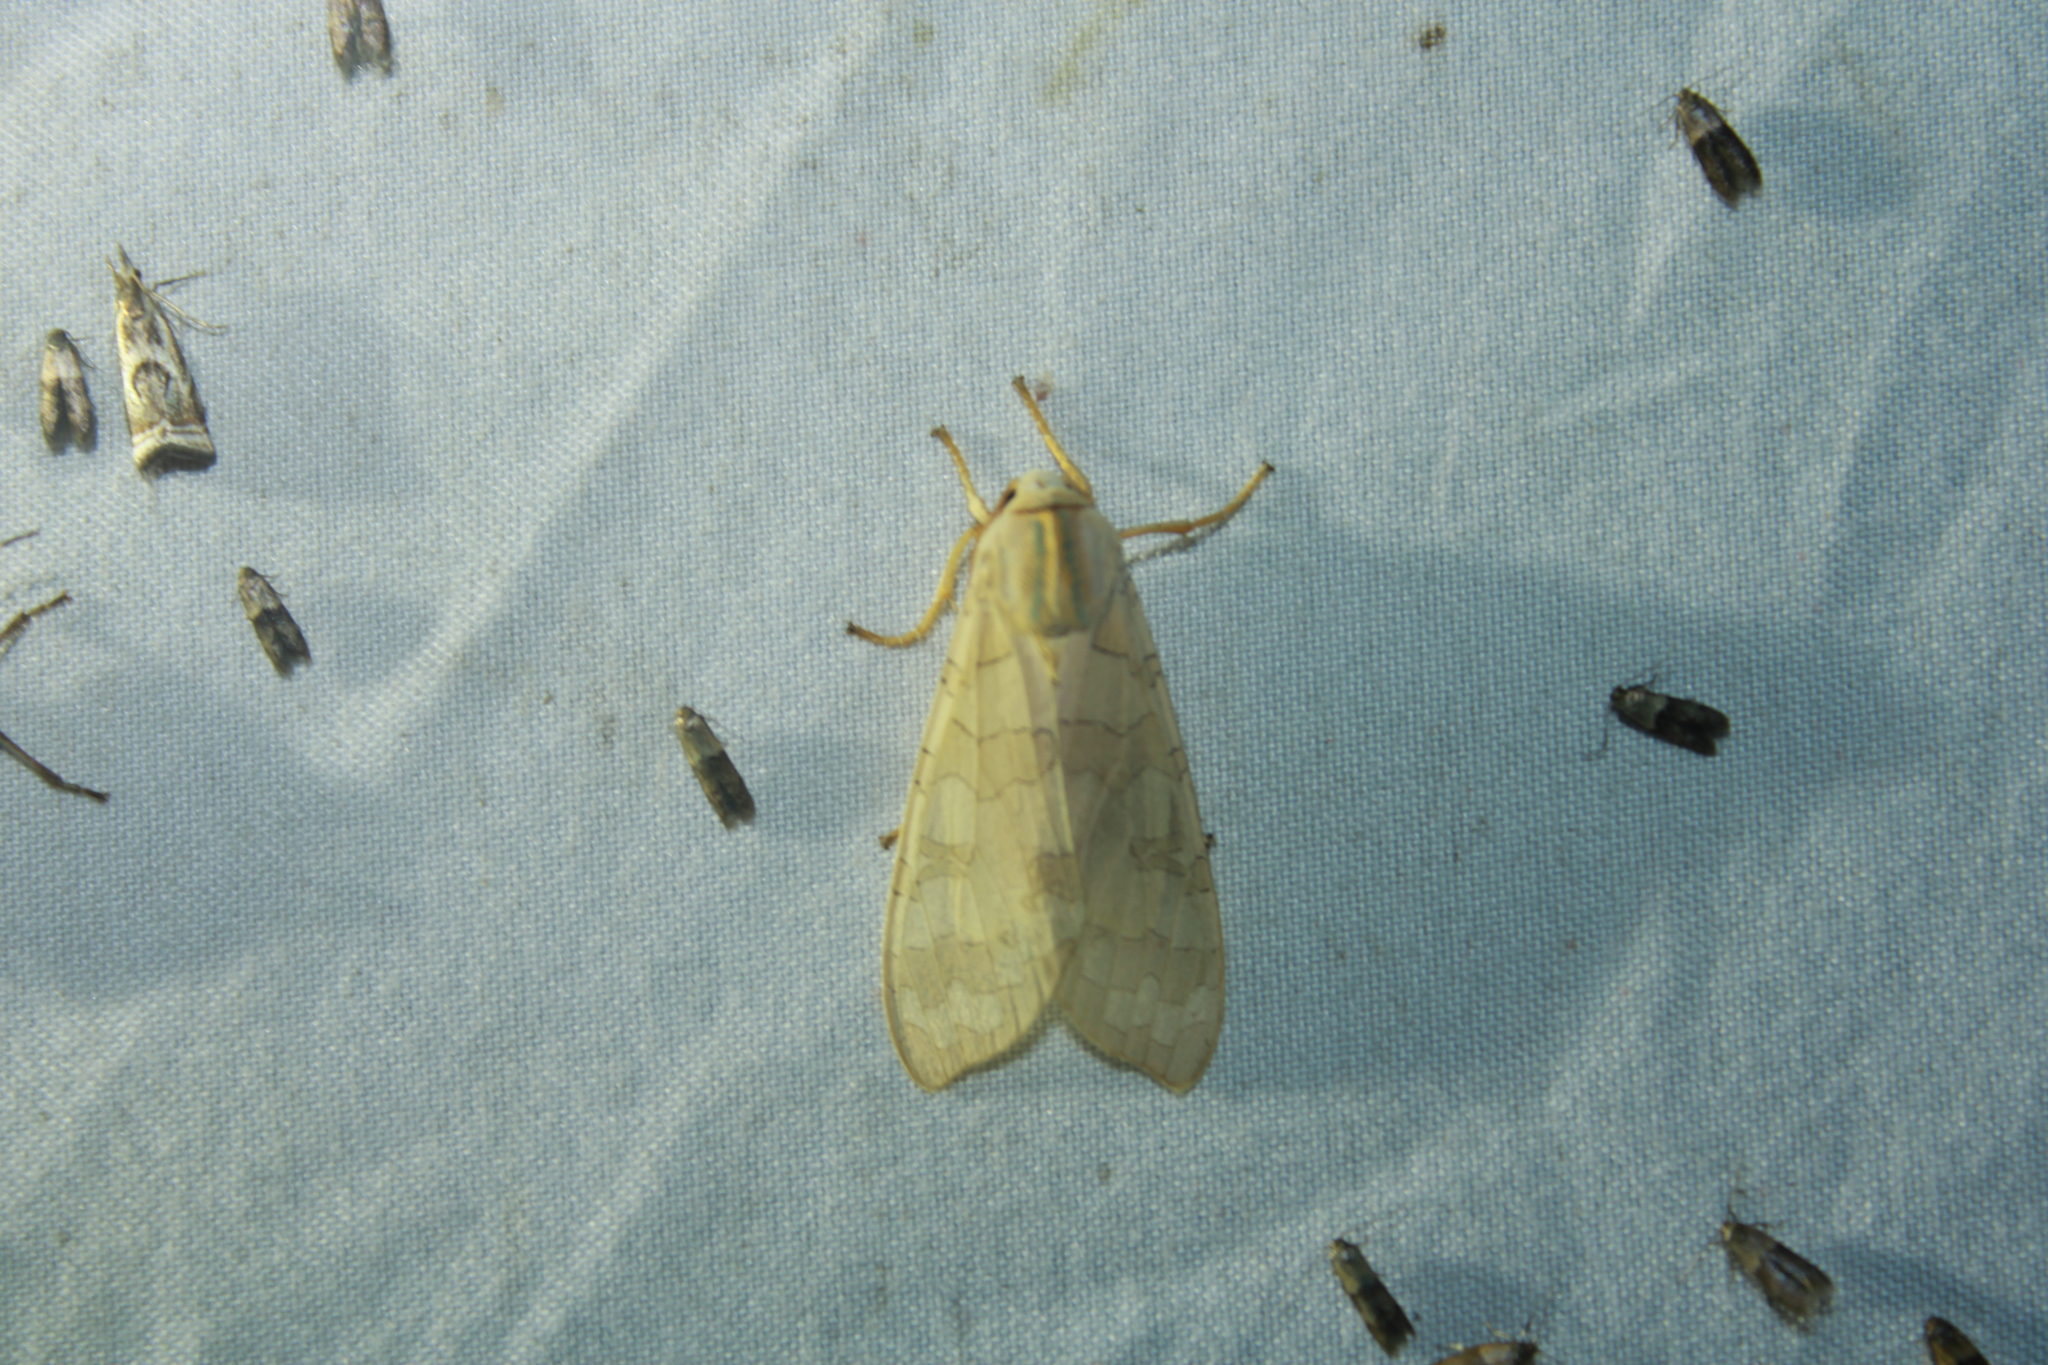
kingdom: Animalia
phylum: Arthropoda
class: Insecta
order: Lepidoptera
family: Erebidae
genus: Halysidota
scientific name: Halysidota
